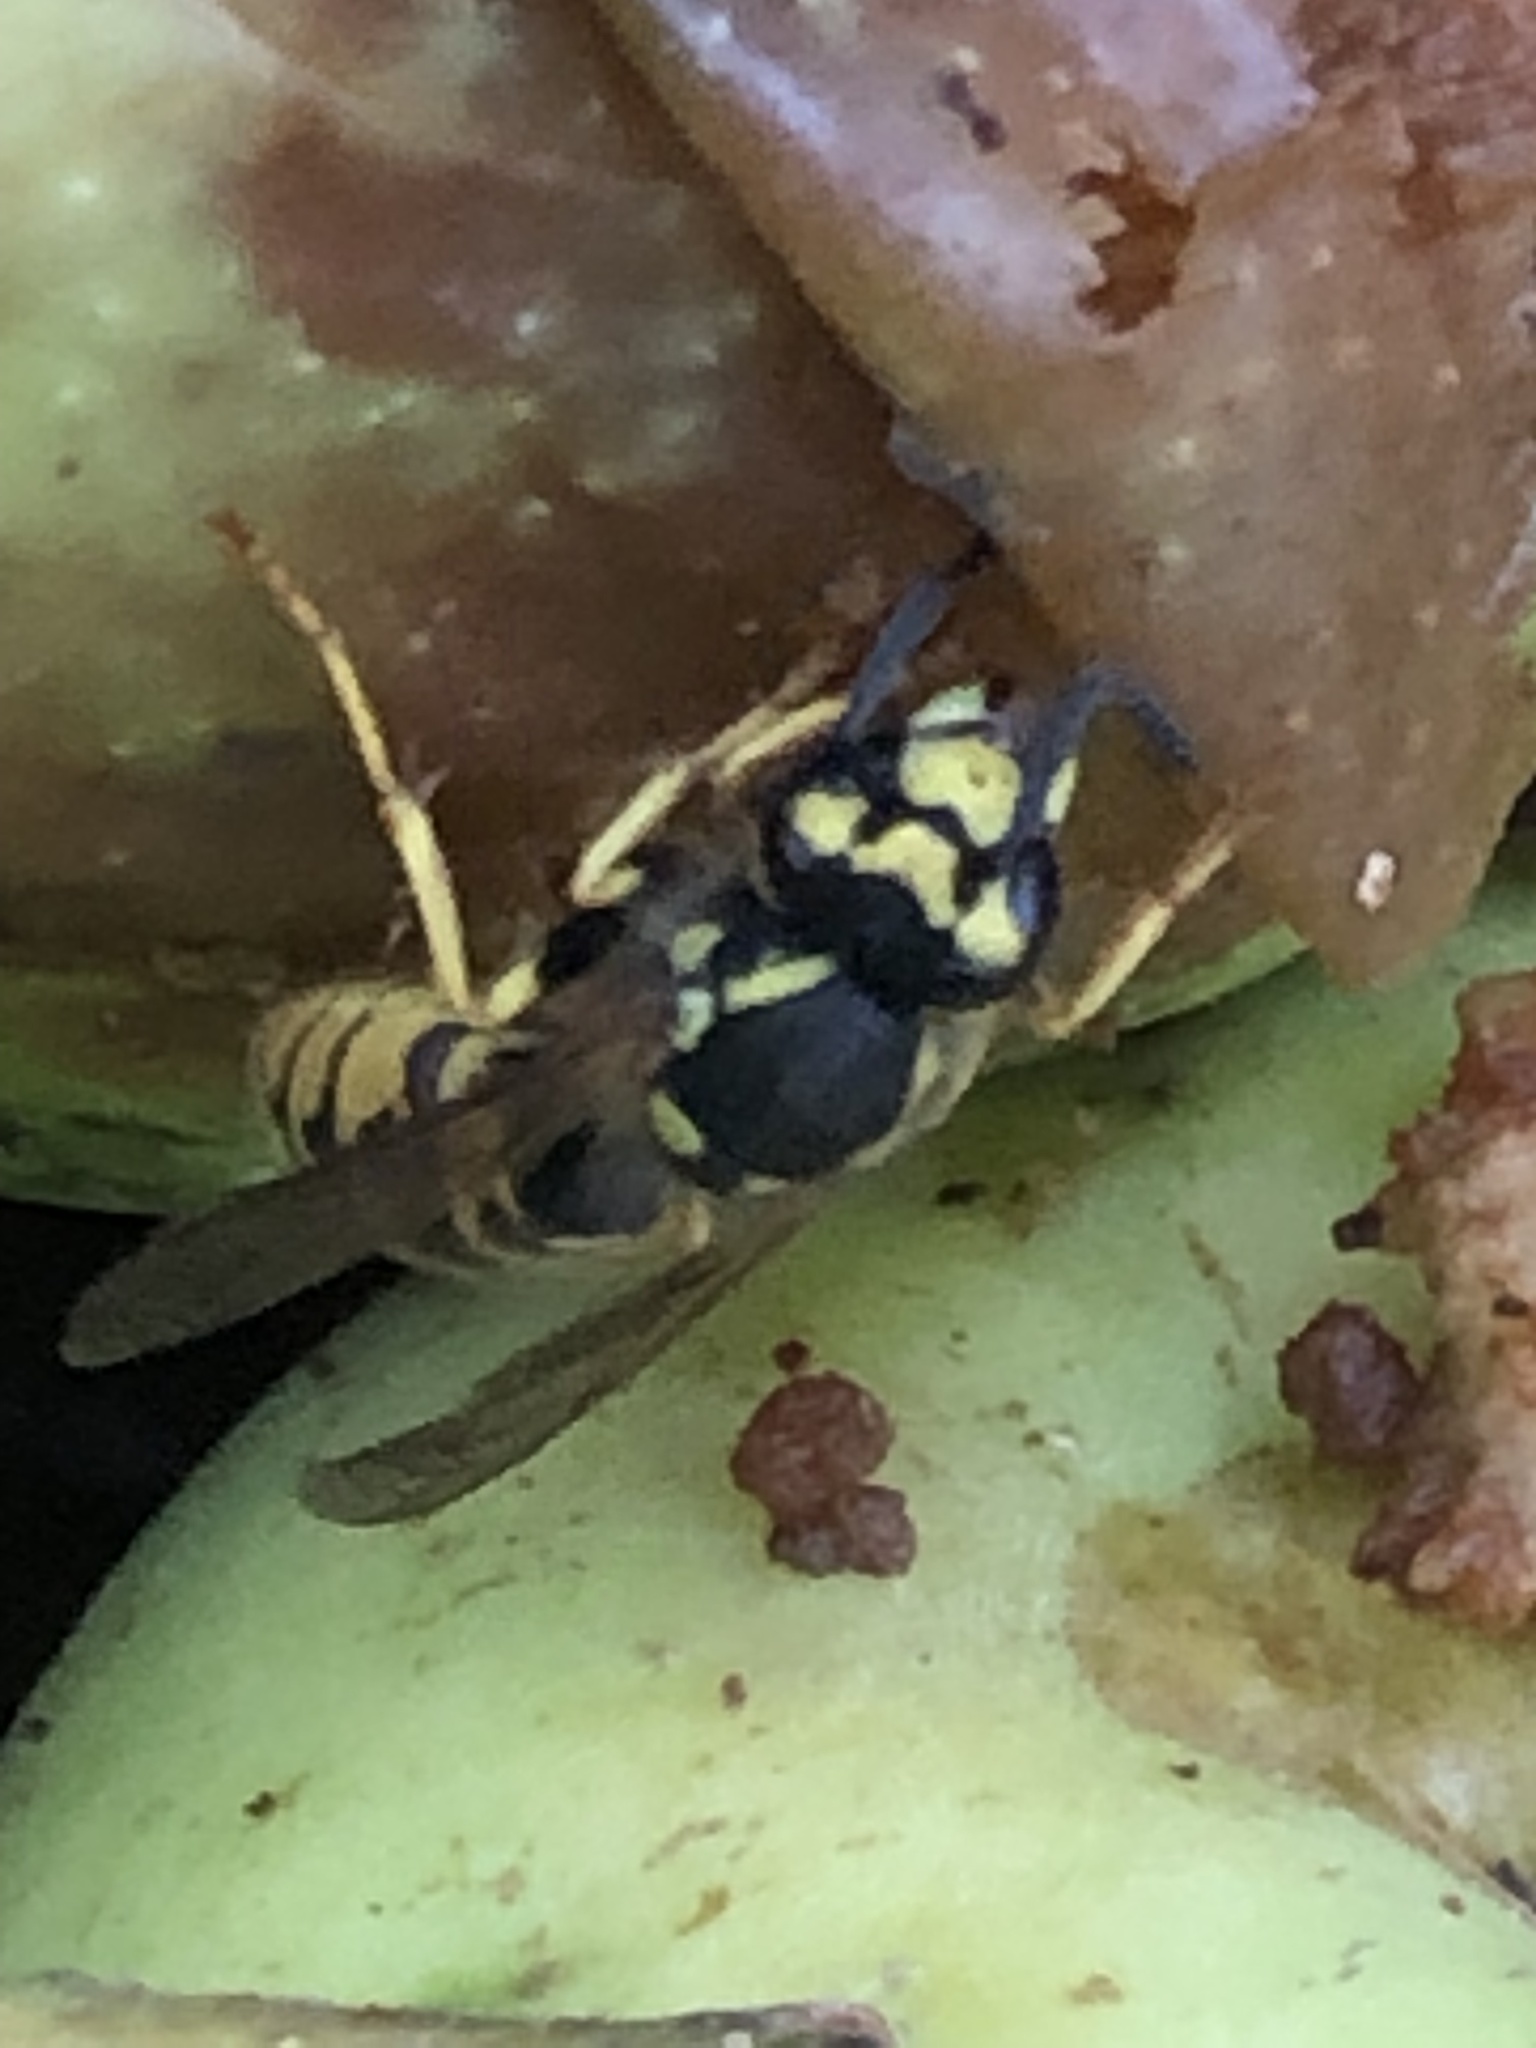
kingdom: Animalia
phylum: Arthropoda
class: Insecta
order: Hymenoptera
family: Vespidae
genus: Vespula
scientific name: Vespula germanica
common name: German wasp
